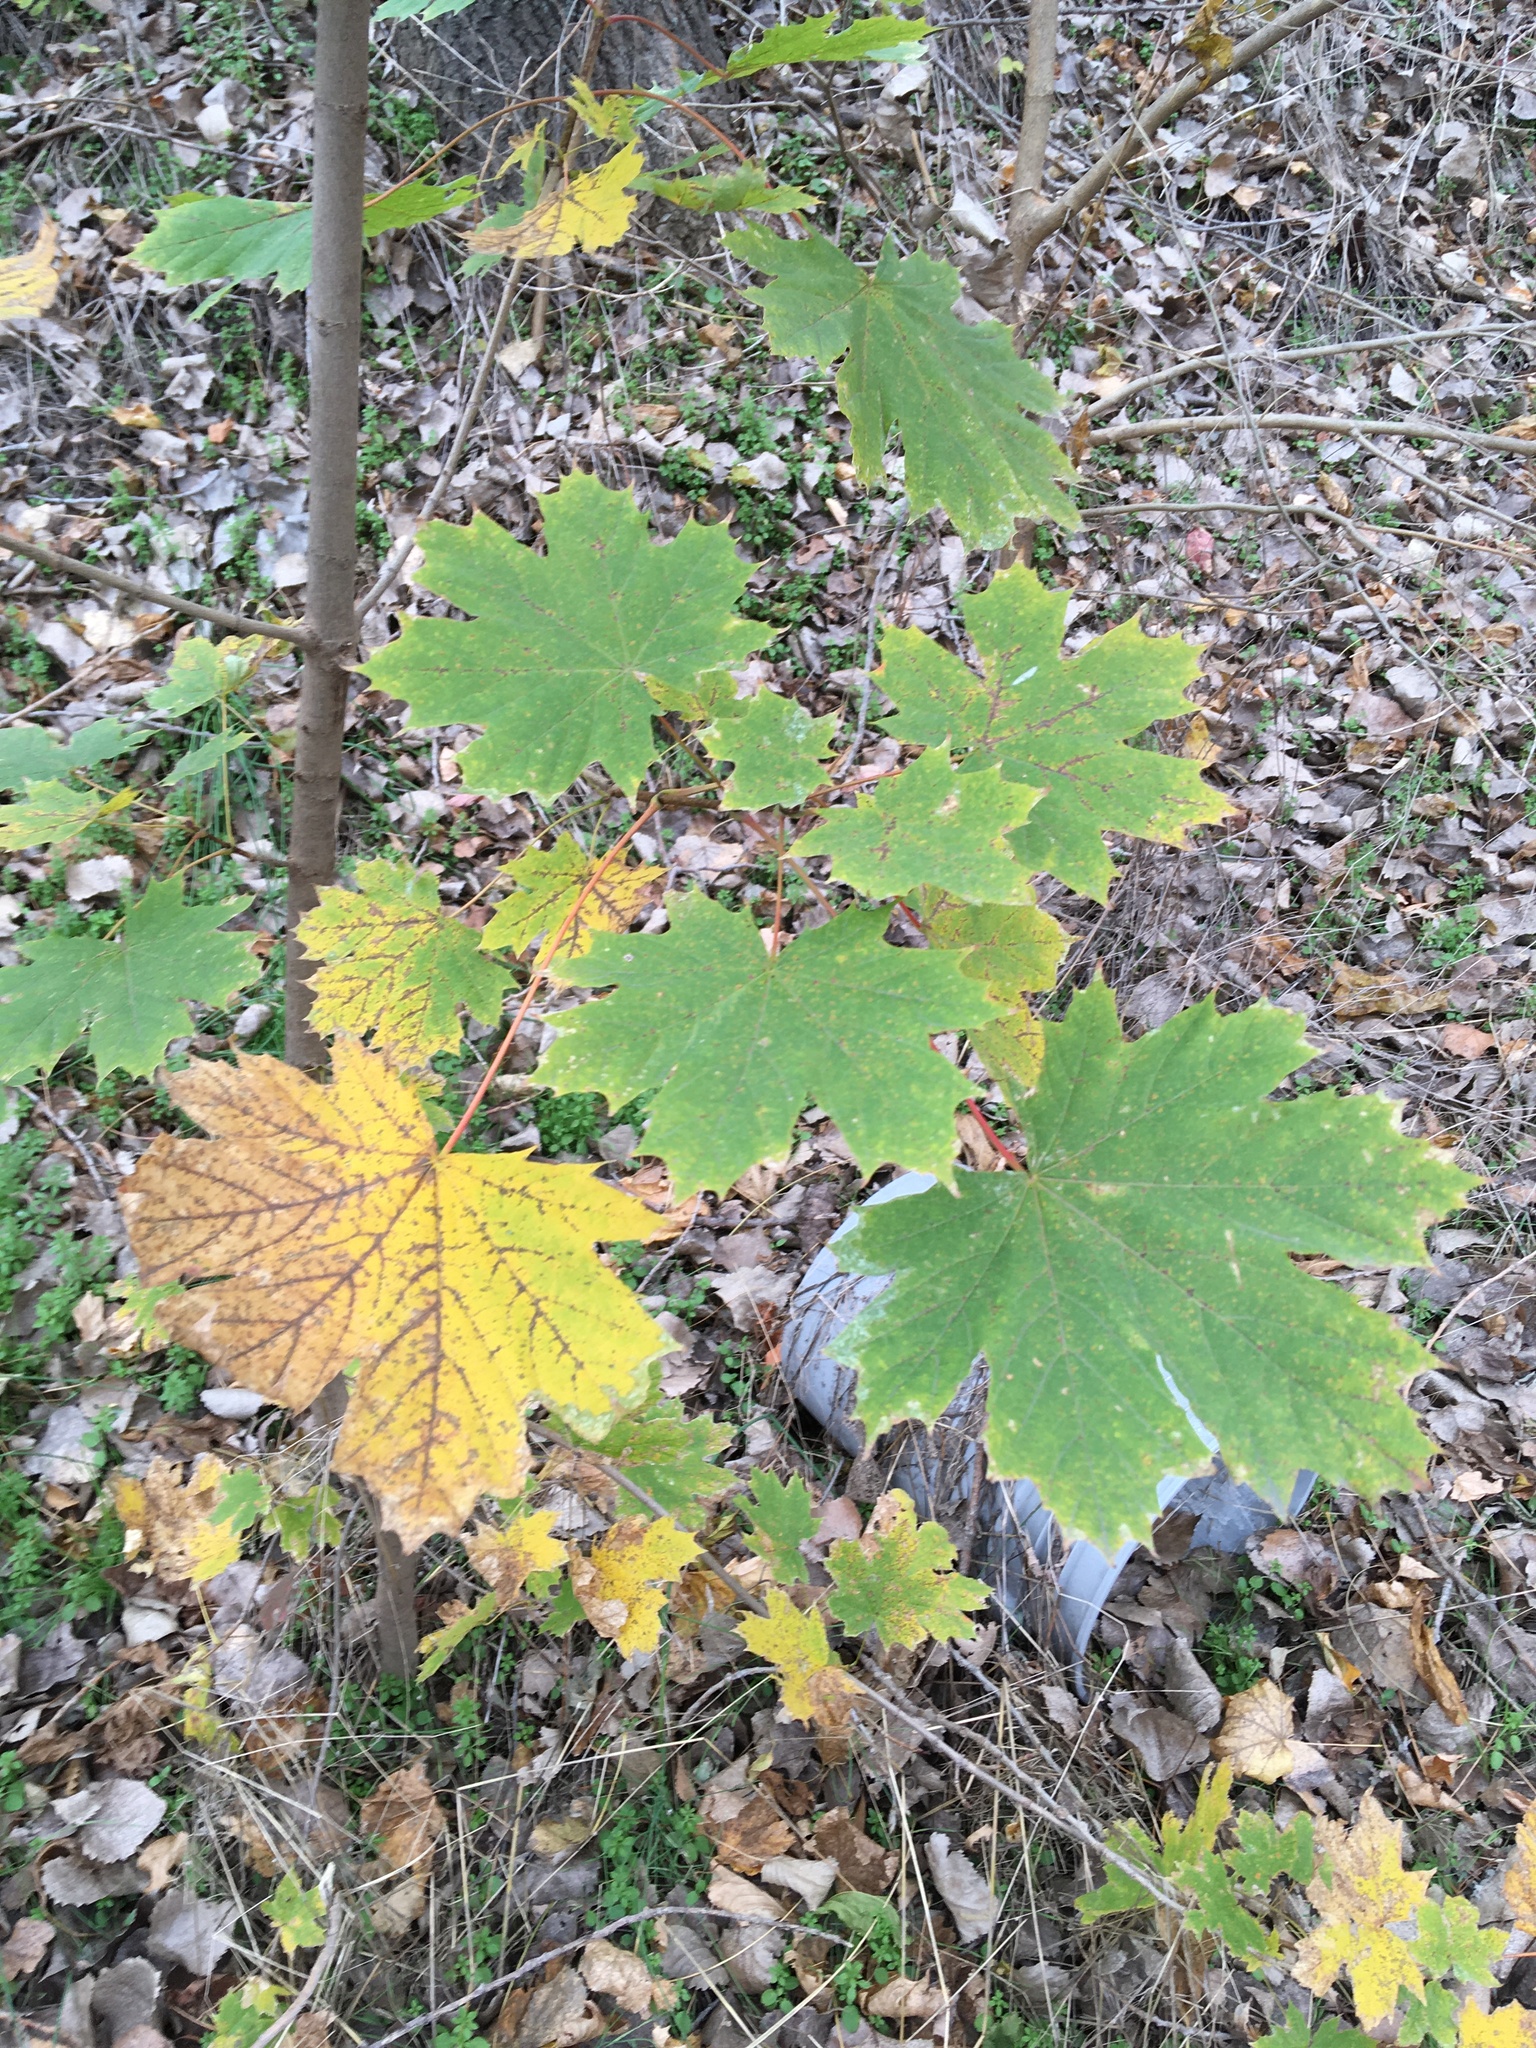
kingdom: Plantae
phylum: Tracheophyta
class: Magnoliopsida
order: Sapindales
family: Sapindaceae
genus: Acer
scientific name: Acer platanoides
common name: Norway maple
